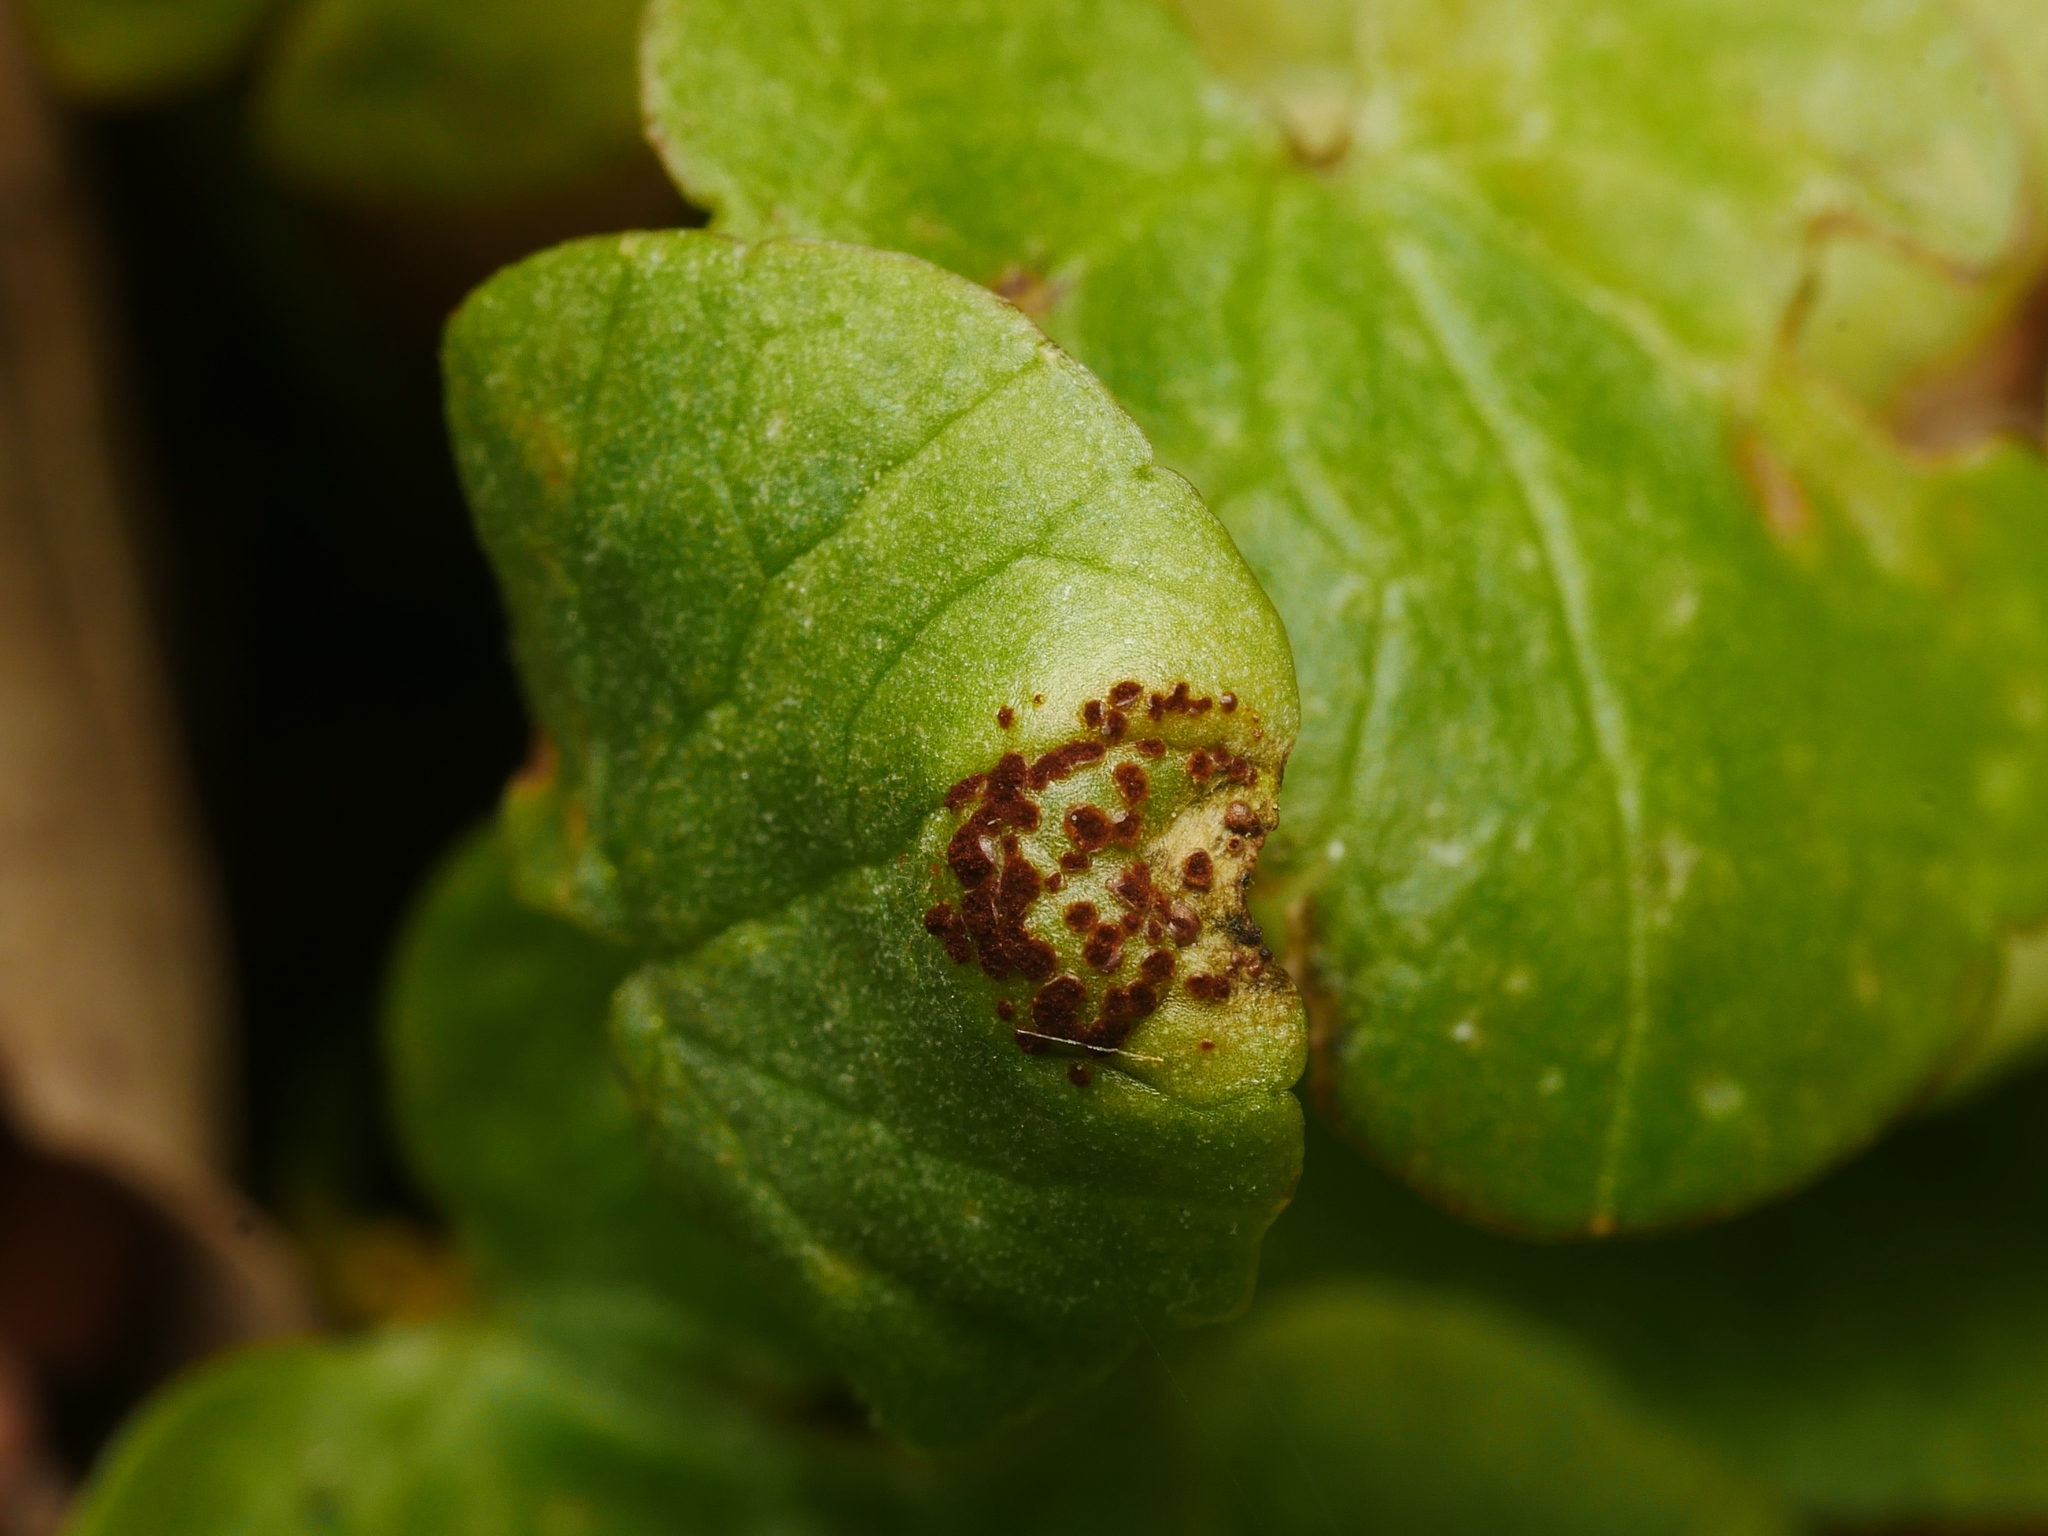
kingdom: Fungi
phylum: Basidiomycota
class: Pucciniomycetes
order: Pucciniales
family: Pucciniaceae
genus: Uromyces
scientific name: Uromyces ficariae
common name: Bitter chocolate rust
